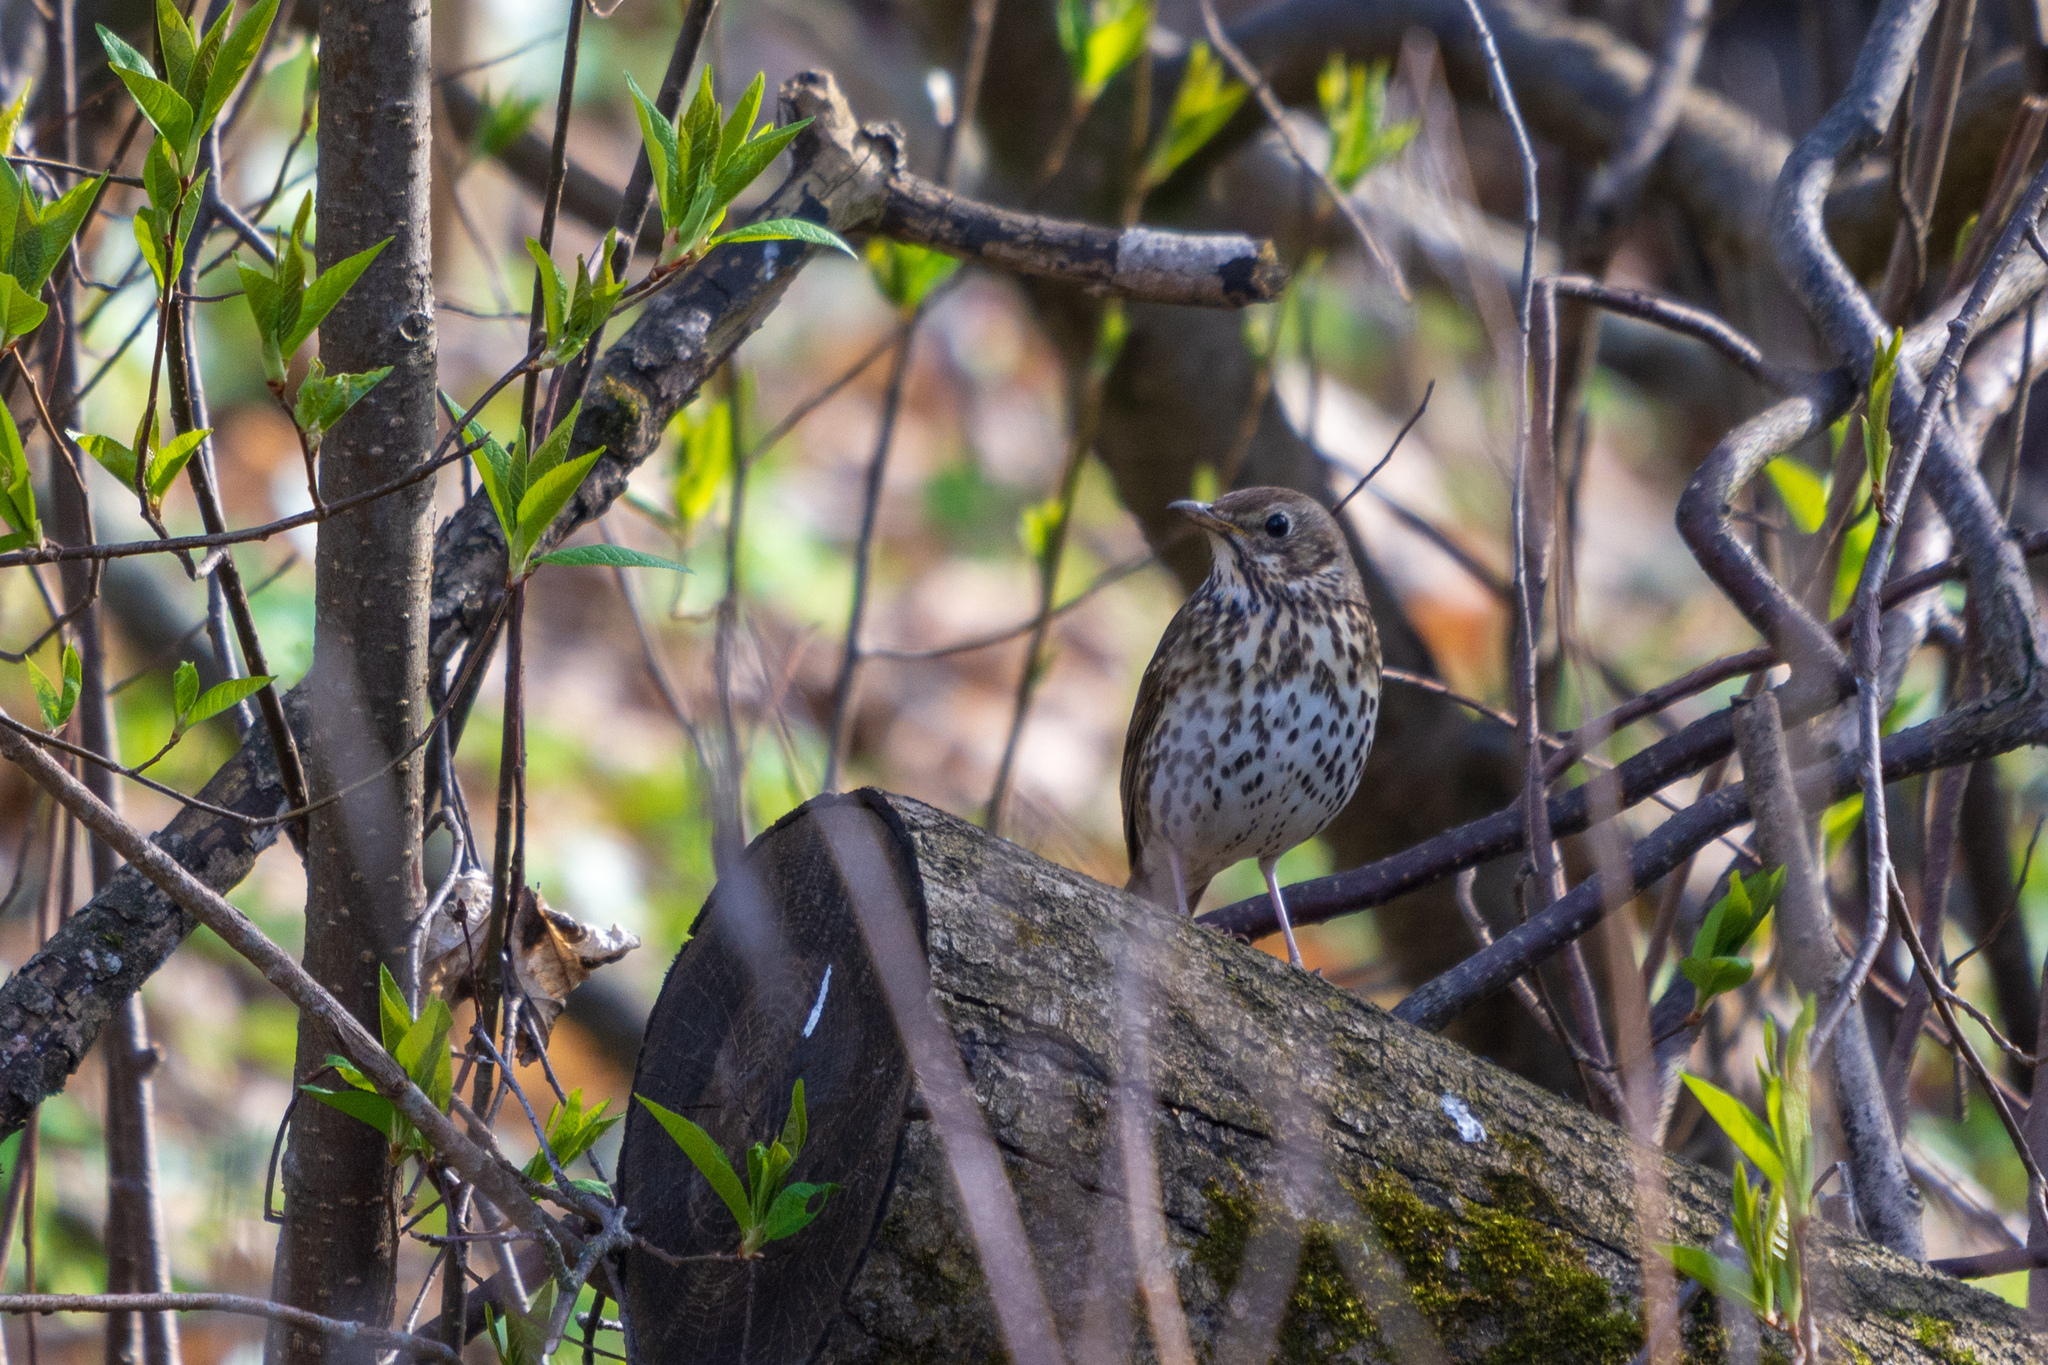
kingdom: Animalia
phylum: Chordata
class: Aves
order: Passeriformes
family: Turdidae
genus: Turdus
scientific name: Turdus philomelos
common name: Song thrush
